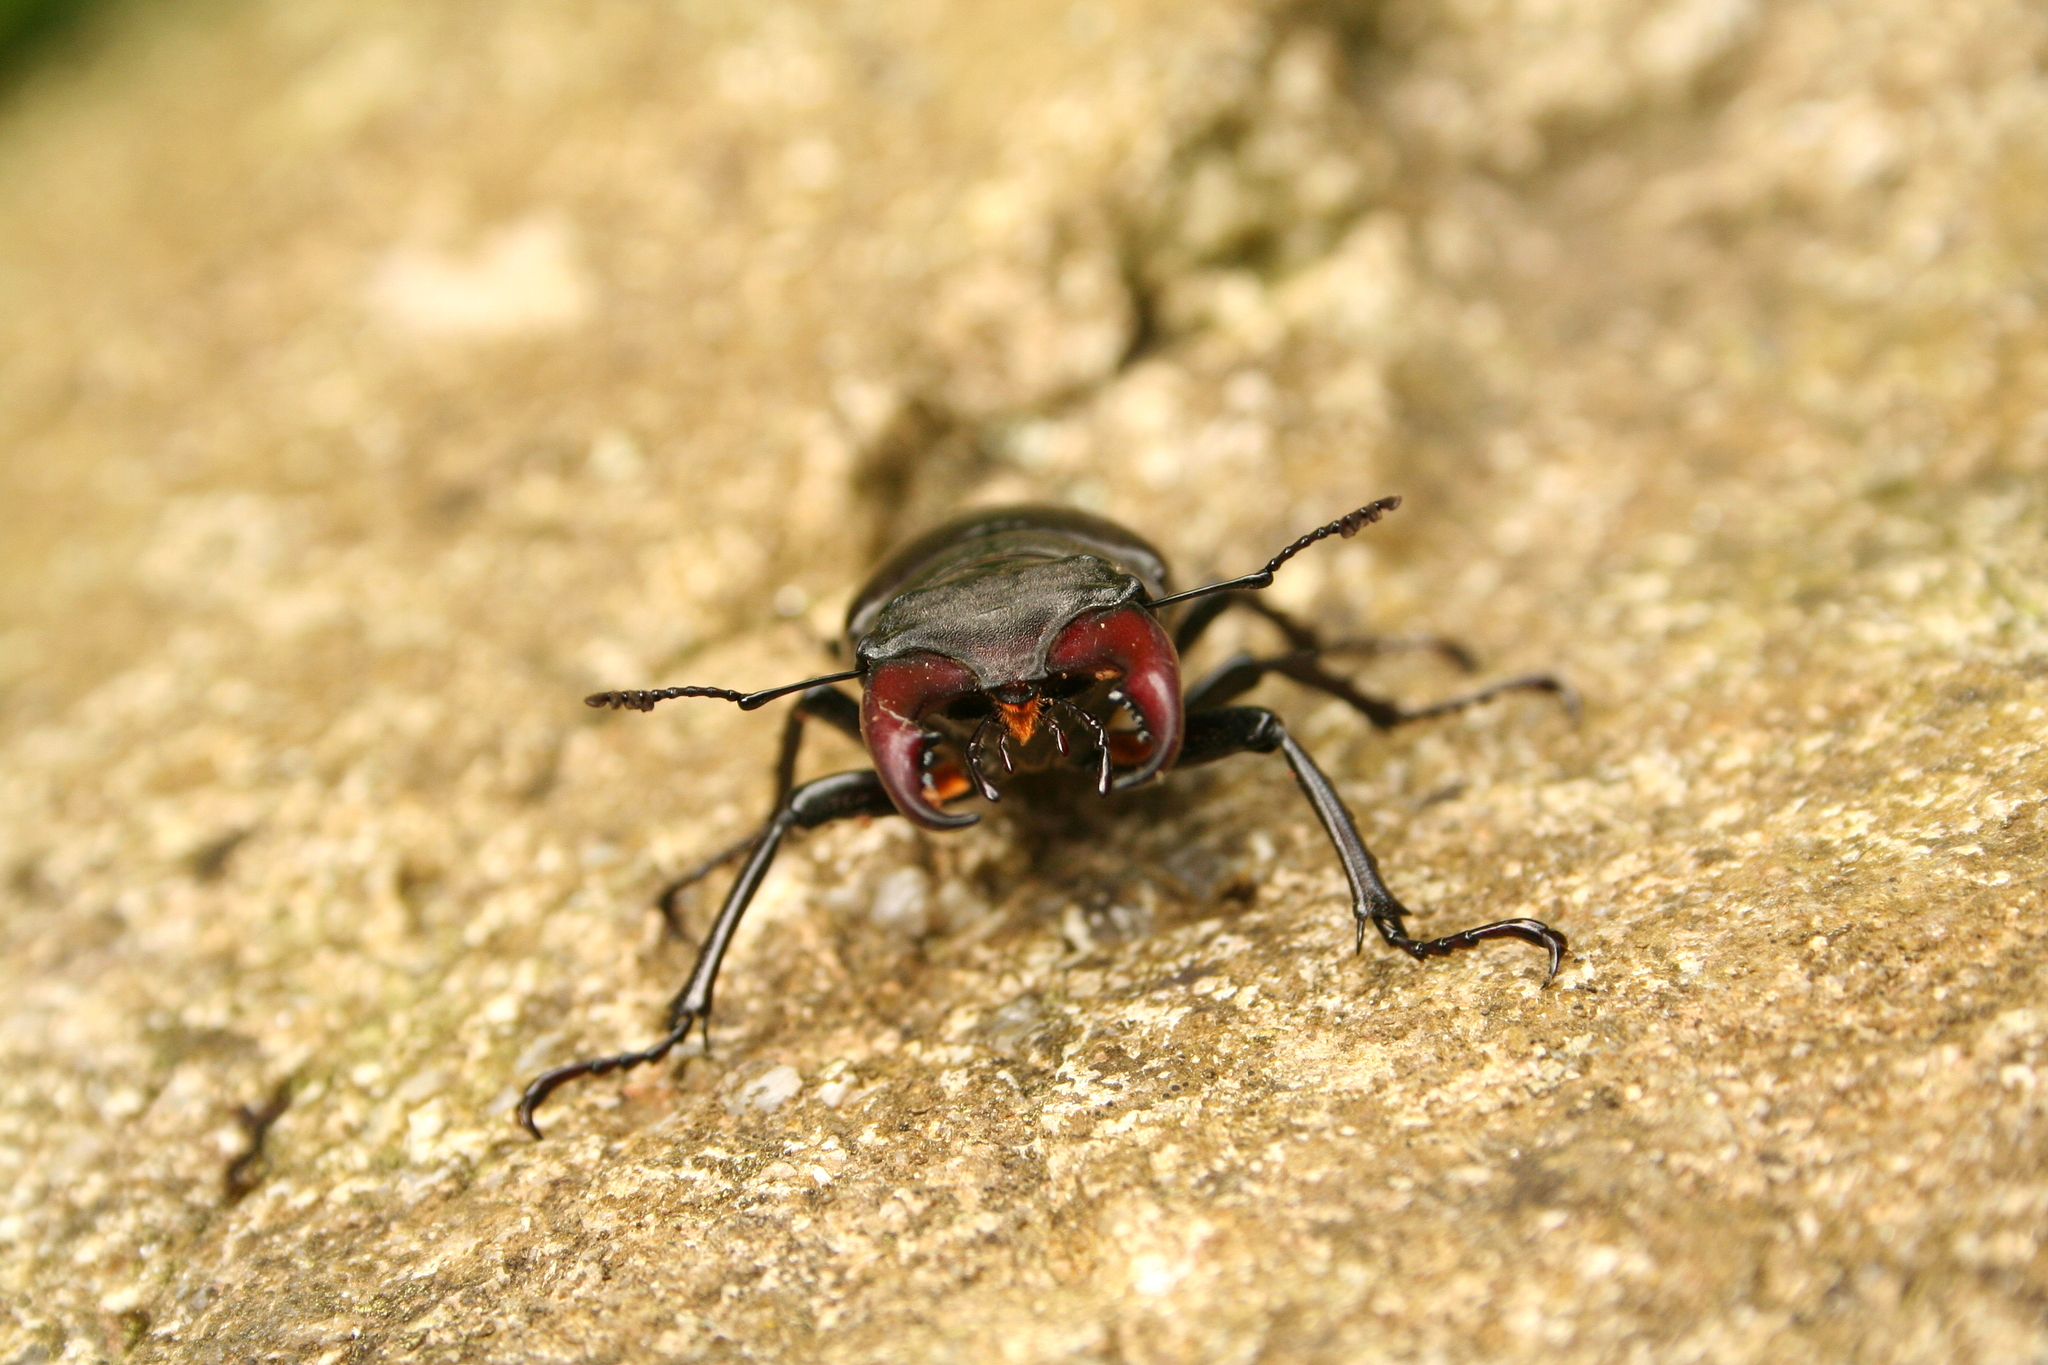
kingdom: Animalia
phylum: Arthropoda
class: Insecta
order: Coleoptera
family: Lucanidae
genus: Lucanus
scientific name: Lucanus cervus
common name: Stag beetle
